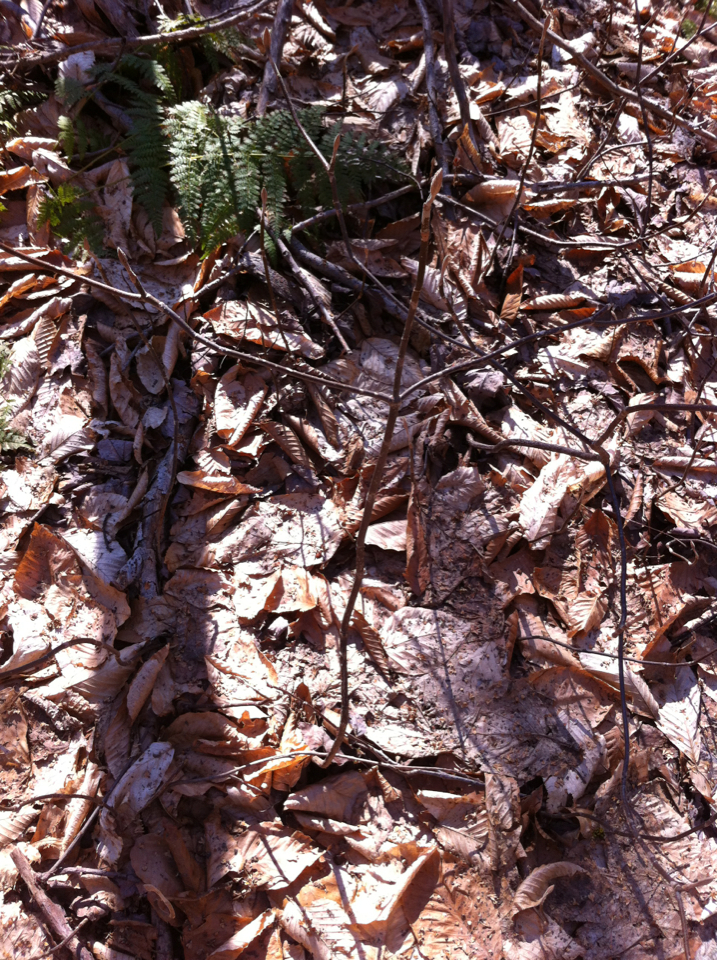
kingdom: Plantae
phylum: Tracheophyta
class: Magnoliopsida
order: Dipsacales
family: Viburnaceae
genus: Viburnum
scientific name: Viburnum lantanoides
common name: Hobblebush
